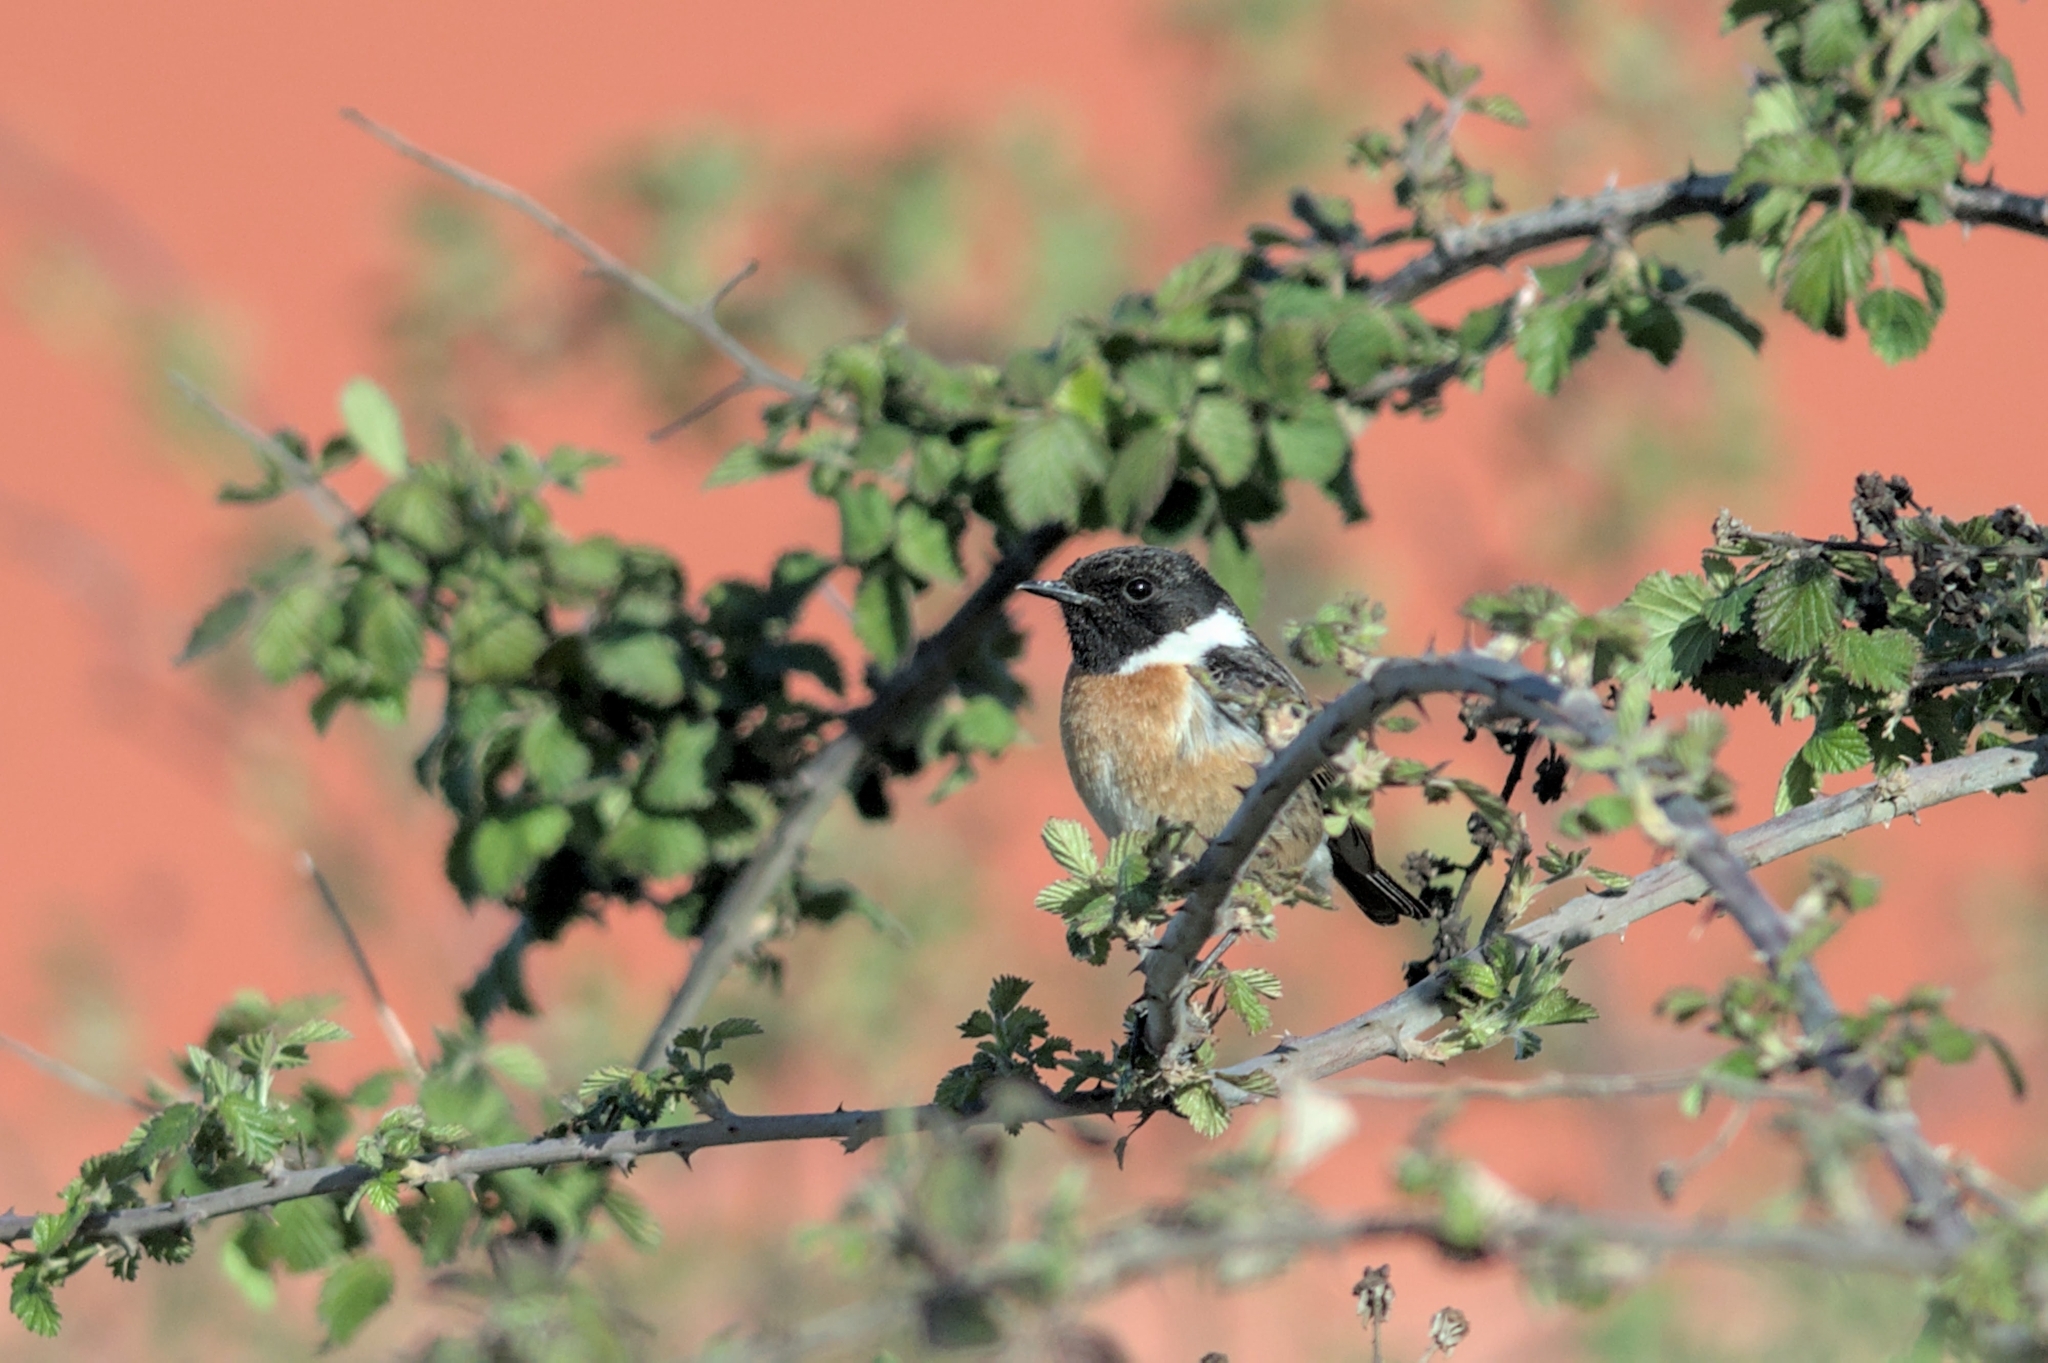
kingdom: Animalia
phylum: Chordata
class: Aves
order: Passeriformes
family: Muscicapidae
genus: Saxicola
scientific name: Saxicola rubicola
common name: European stonechat
